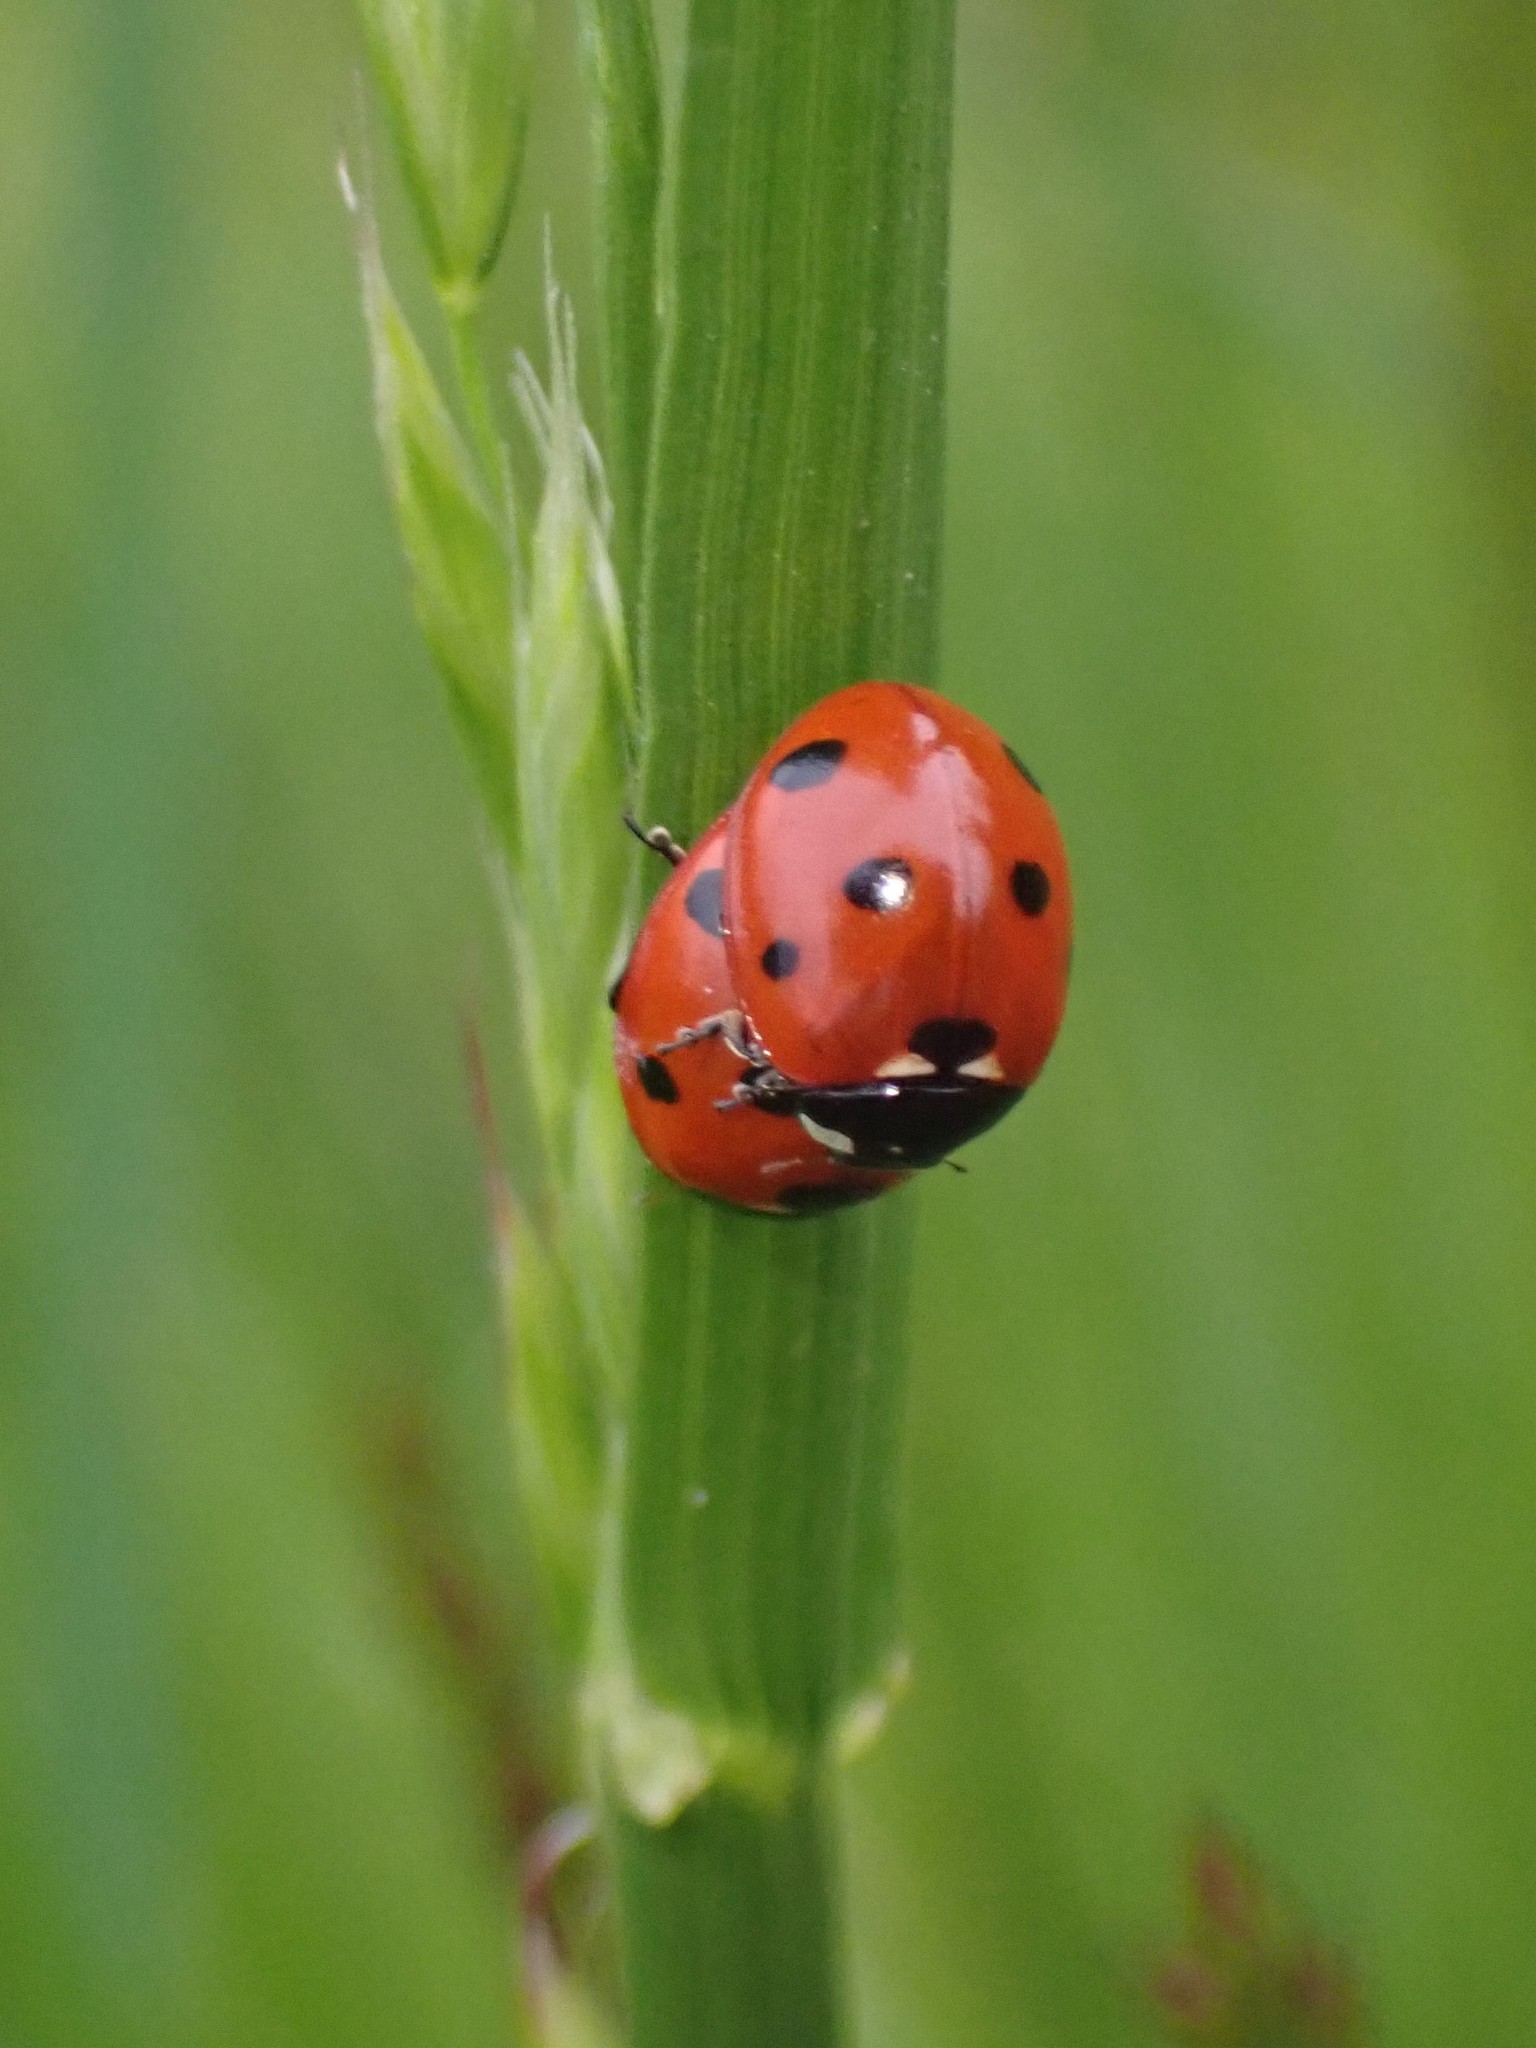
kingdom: Animalia
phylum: Arthropoda
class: Insecta
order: Coleoptera
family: Coccinellidae
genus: Coccinella
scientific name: Coccinella septempunctata
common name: Sevenspotted lady beetle
